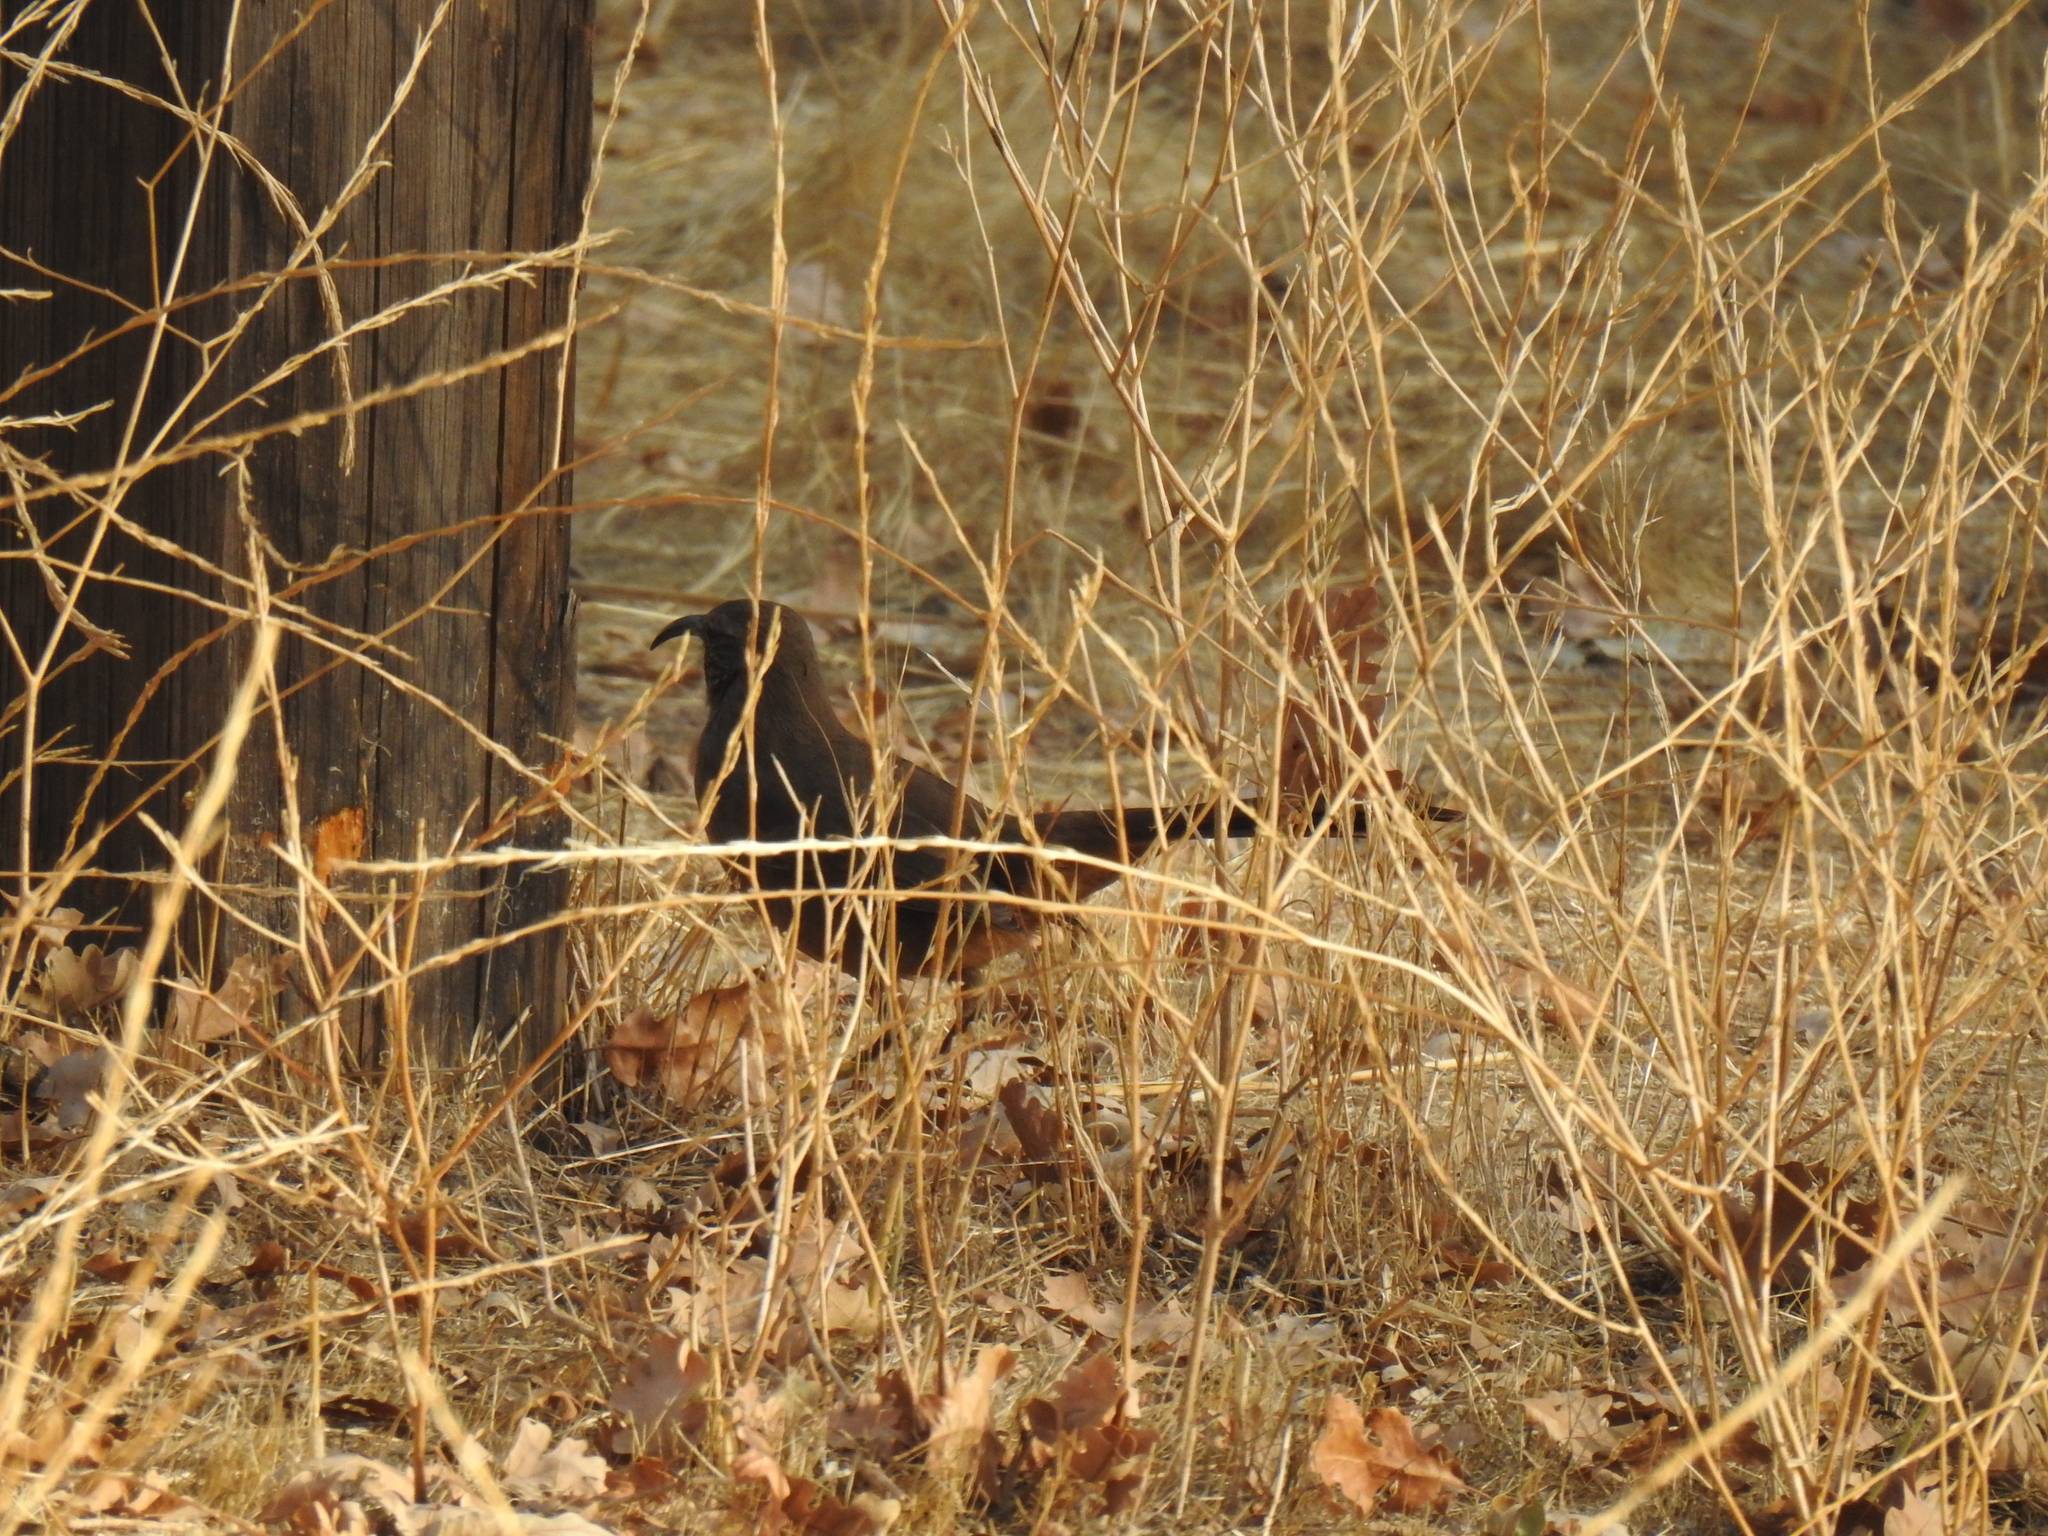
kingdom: Animalia
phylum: Chordata
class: Aves
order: Passeriformes
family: Mimidae
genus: Toxostoma
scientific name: Toxostoma redivivum
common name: California thrasher
